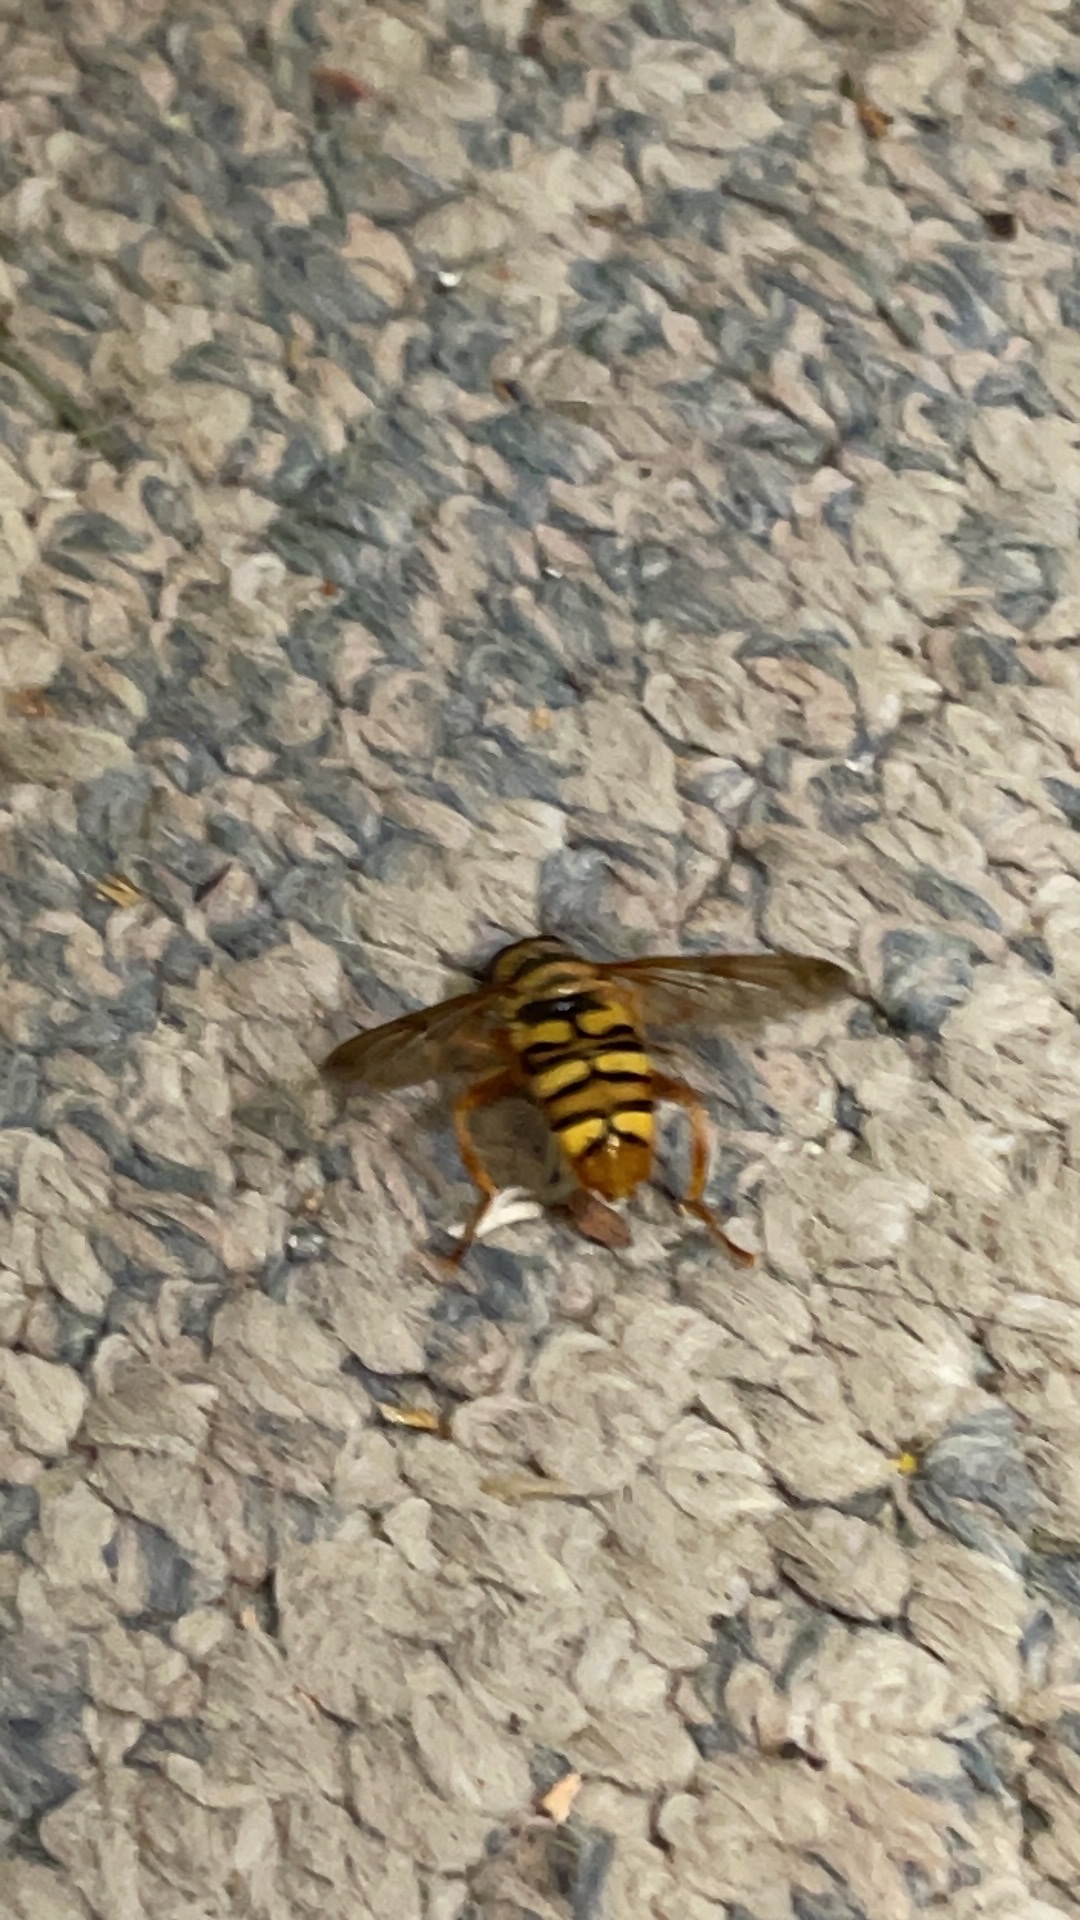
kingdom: Animalia
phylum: Arthropoda
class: Insecta
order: Diptera
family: Syrphidae
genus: Milesia
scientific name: Milesia virginiensis
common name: Virginia giant
